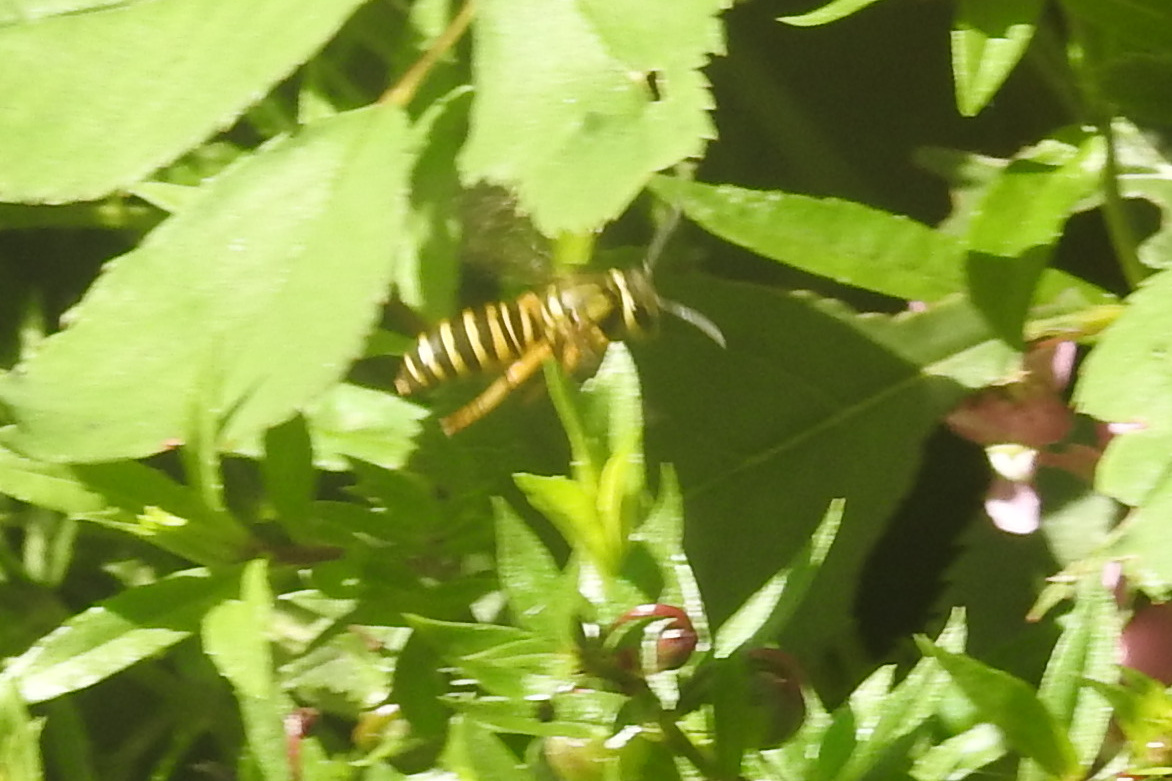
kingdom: Animalia
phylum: Arthropoda
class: Insecta
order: Hymenoptera
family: Vespidae
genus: Vespula
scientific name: Vespula squamosa
